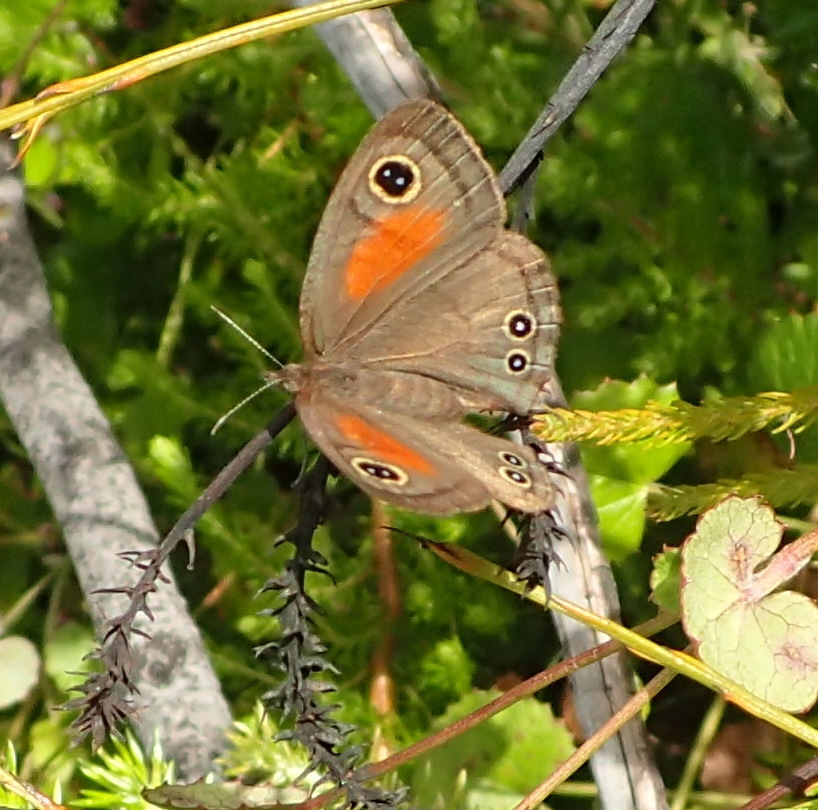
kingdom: Animalia
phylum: Arthropoda
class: Insecta
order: Lepidoptera
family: Nymphalidae
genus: Cassionympha
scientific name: Cassionympha cassius
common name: Rainforest brown
